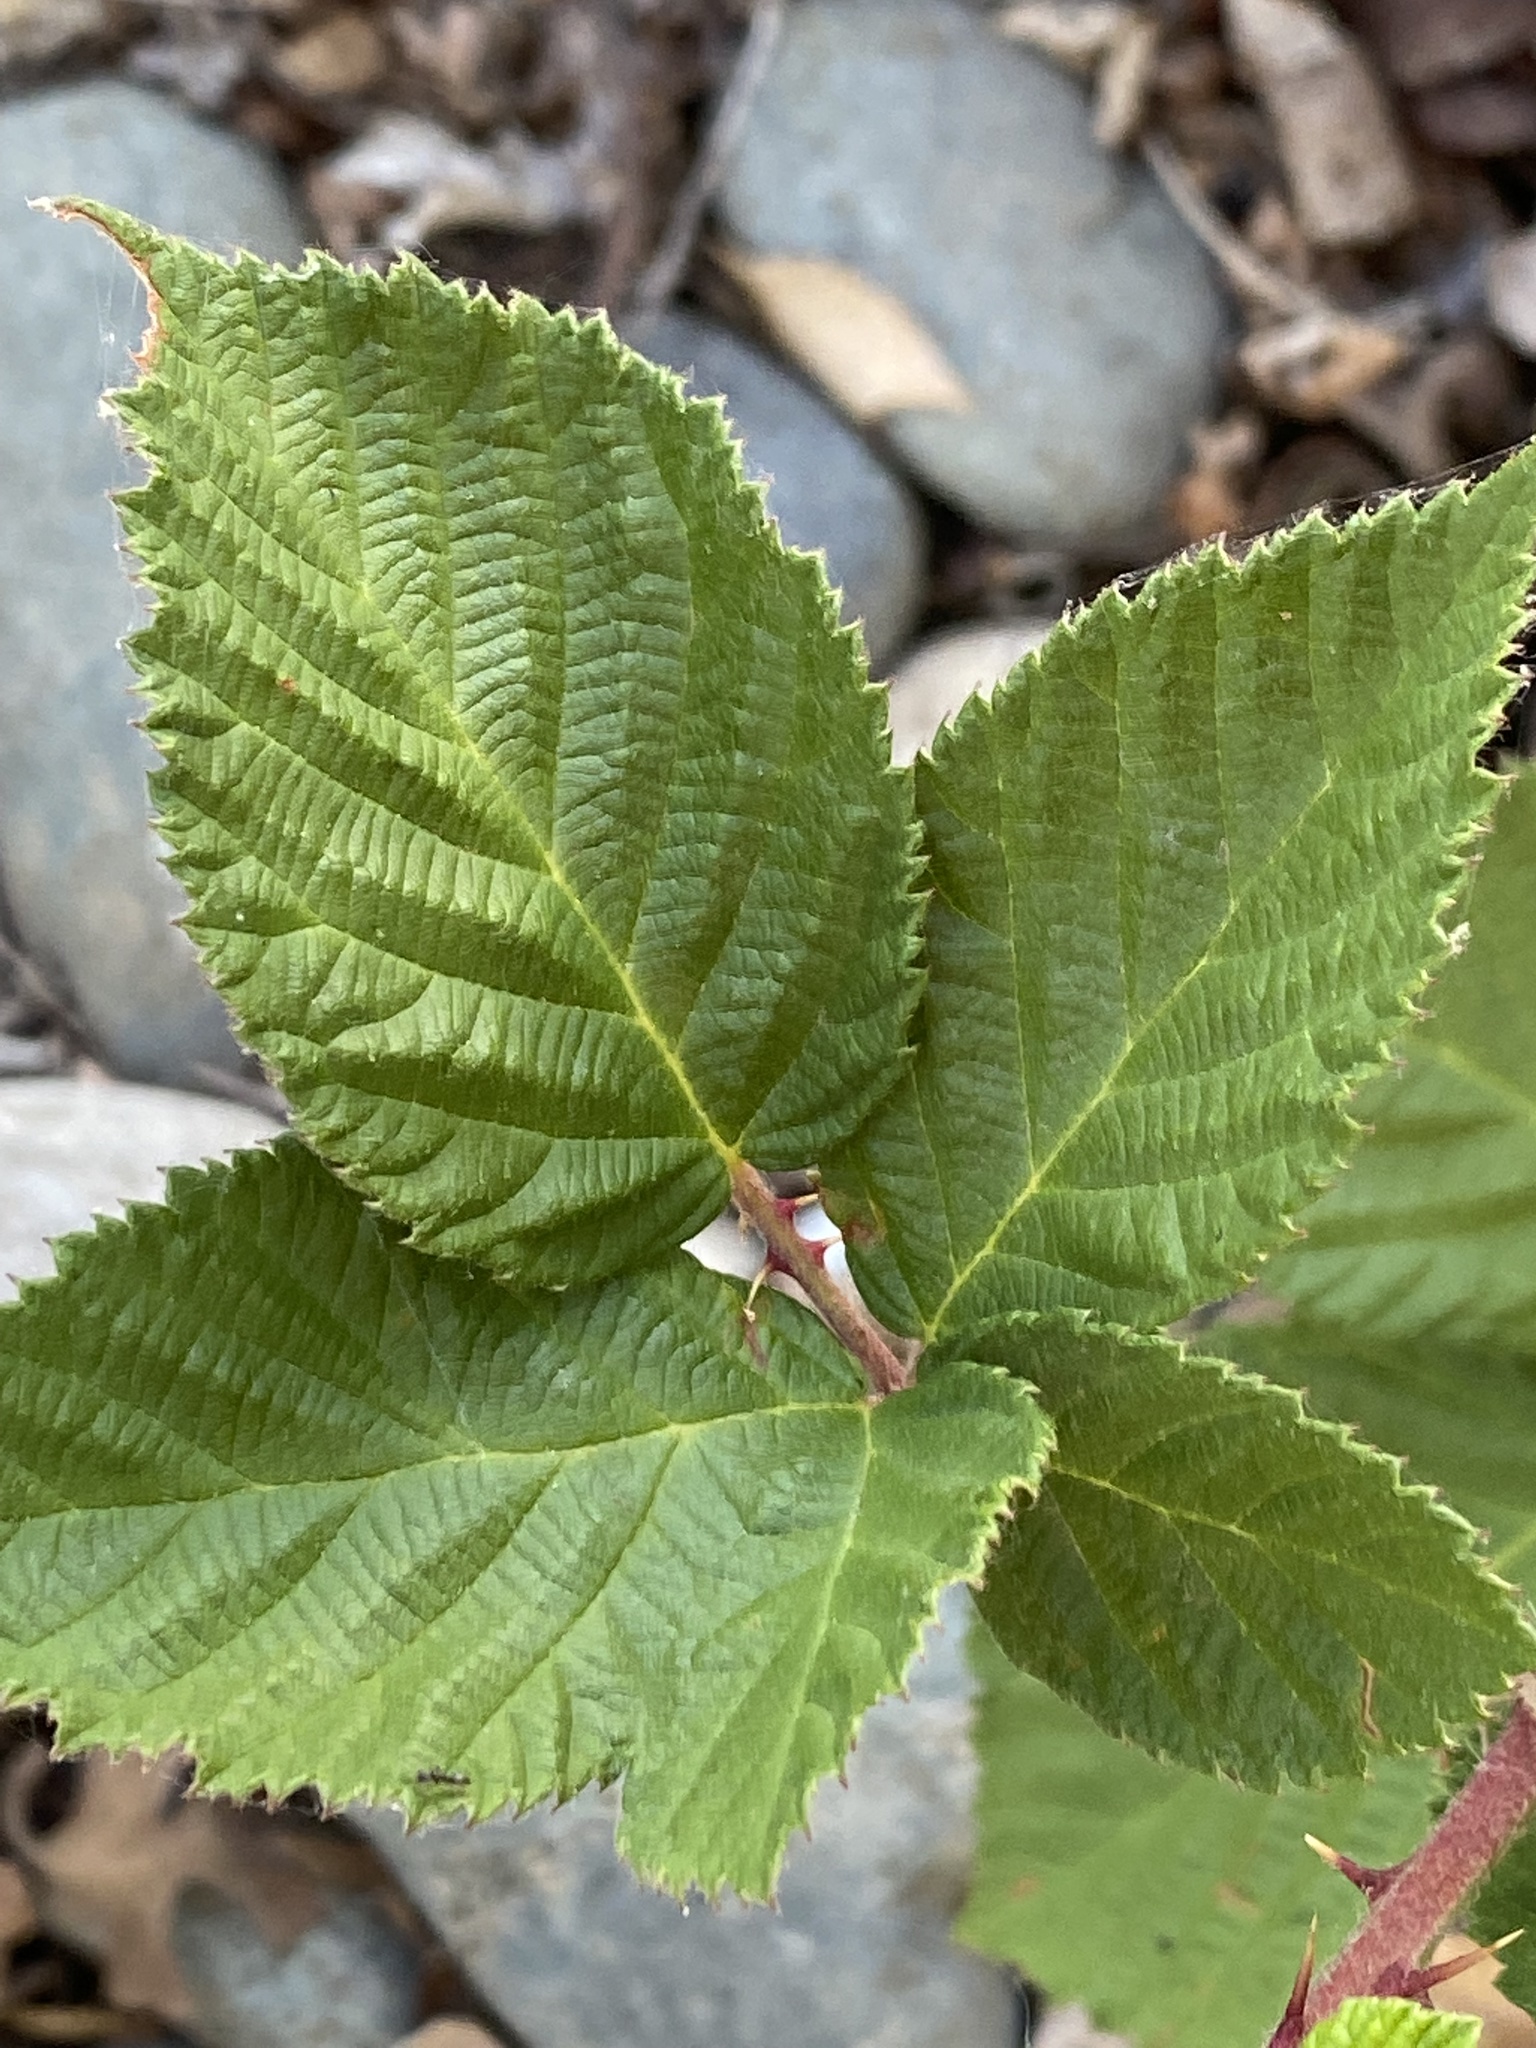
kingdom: Plantae
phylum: Tracheophyta
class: Magnoliopsida
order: Rosales
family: Rosaceae
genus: Rubus
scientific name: Rubus bifrons
